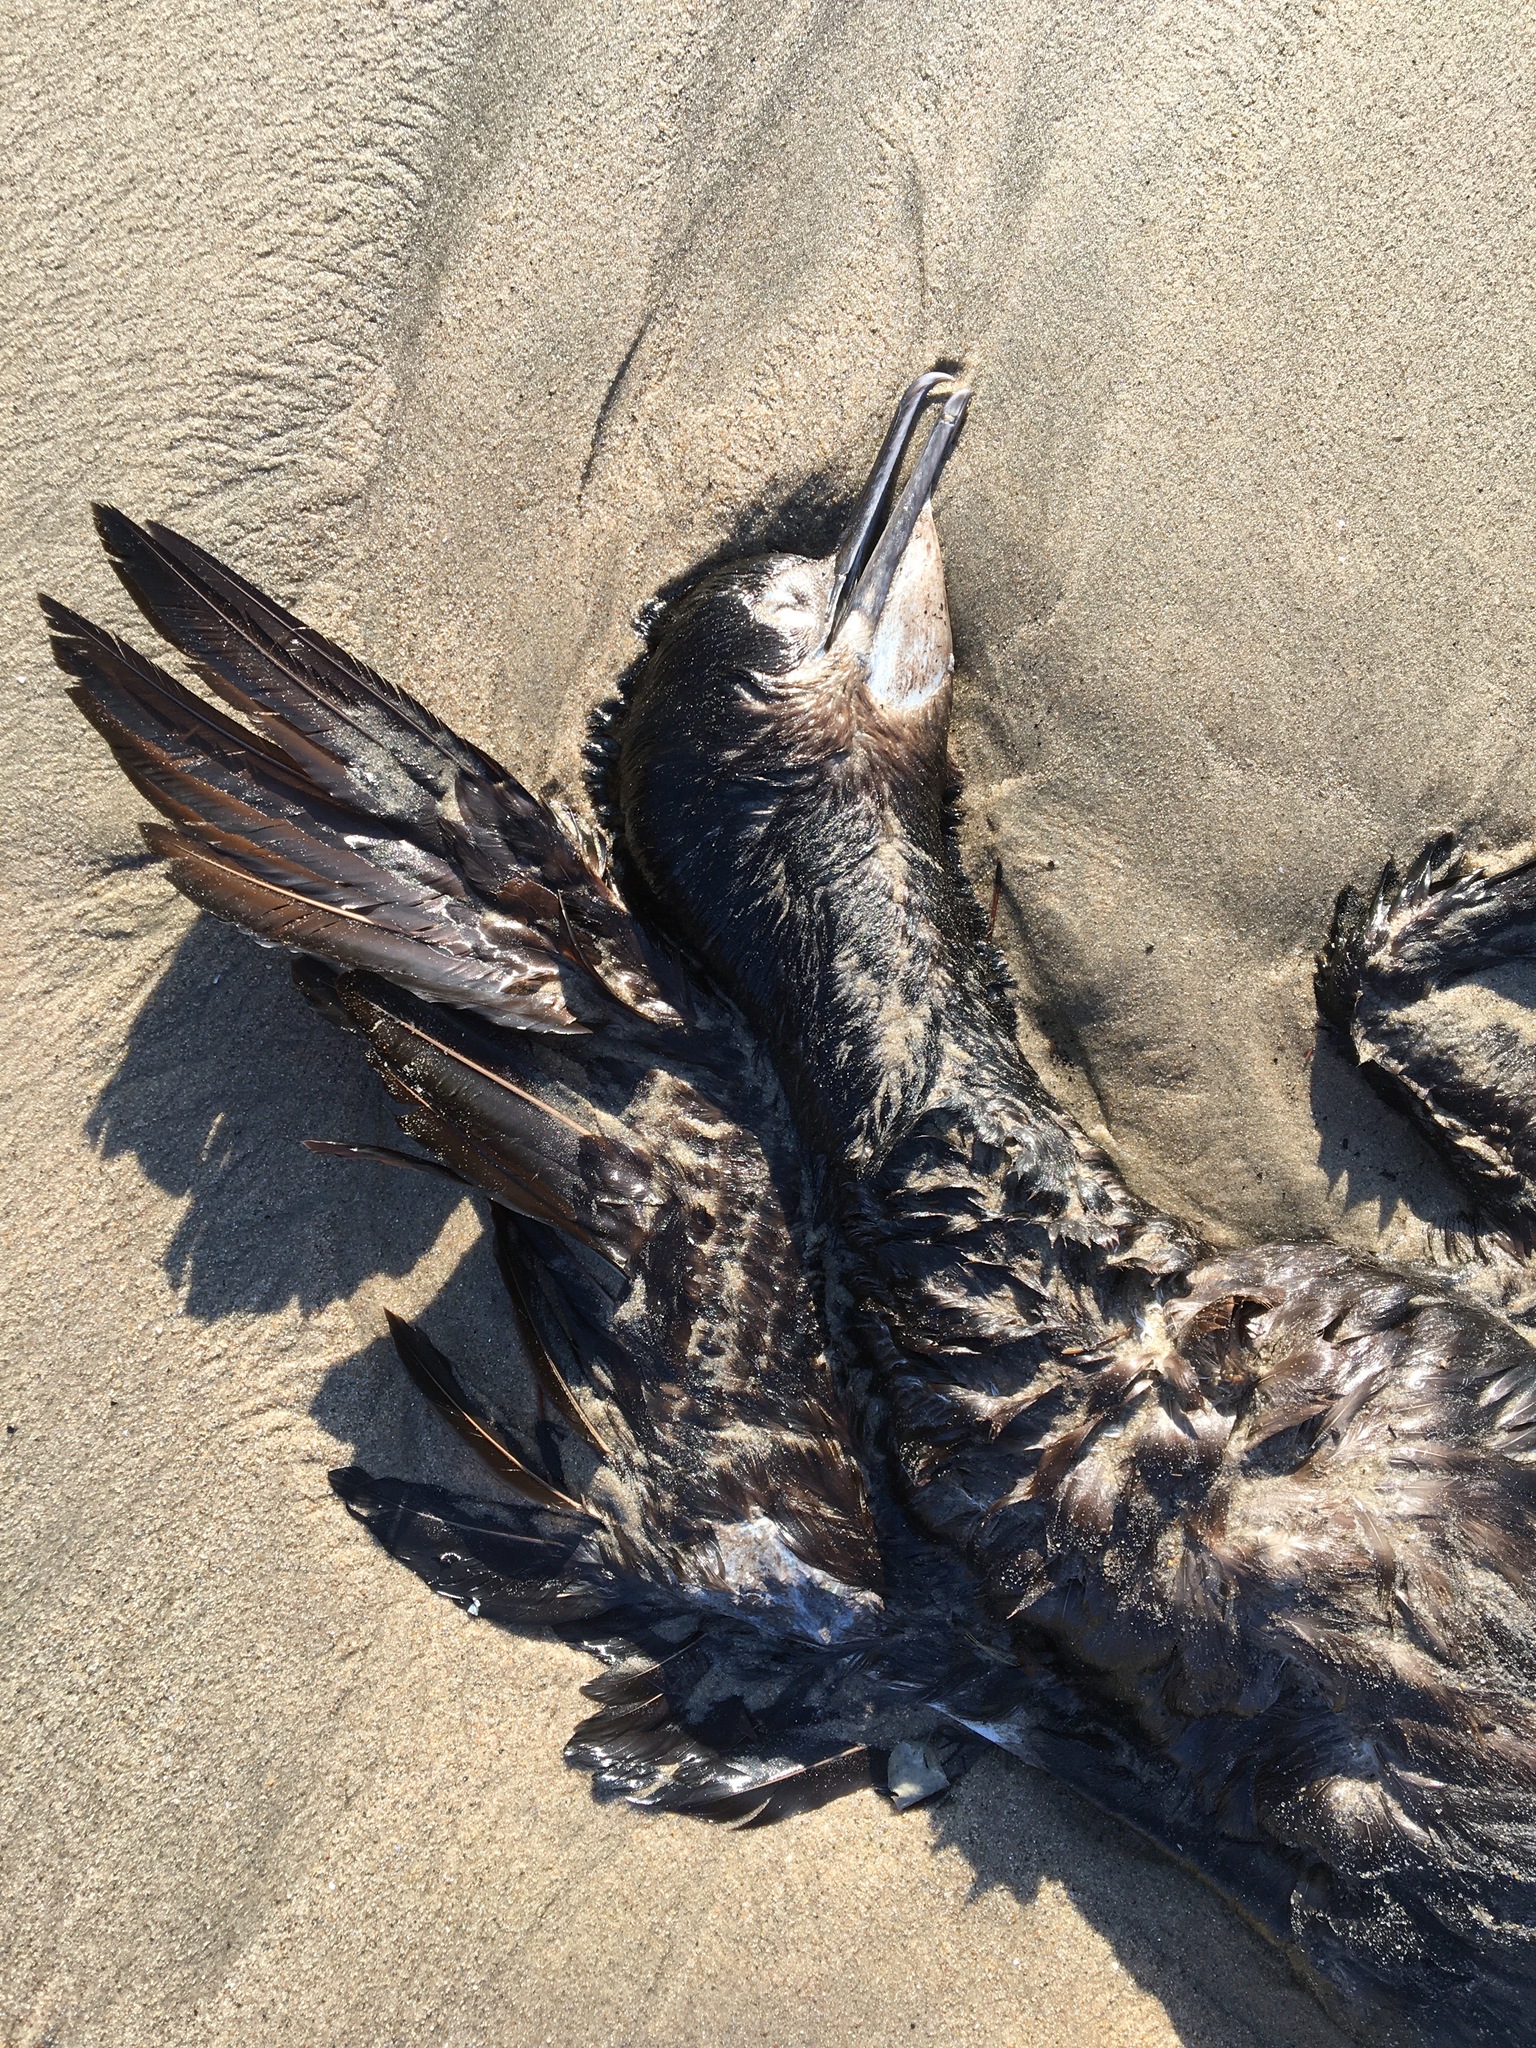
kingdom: Animalia
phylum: Chordata
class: Aves
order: Suliformes
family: Phalacrocoracidae
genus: Urile
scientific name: Urile penicillatus
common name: Brandt's cormorant
